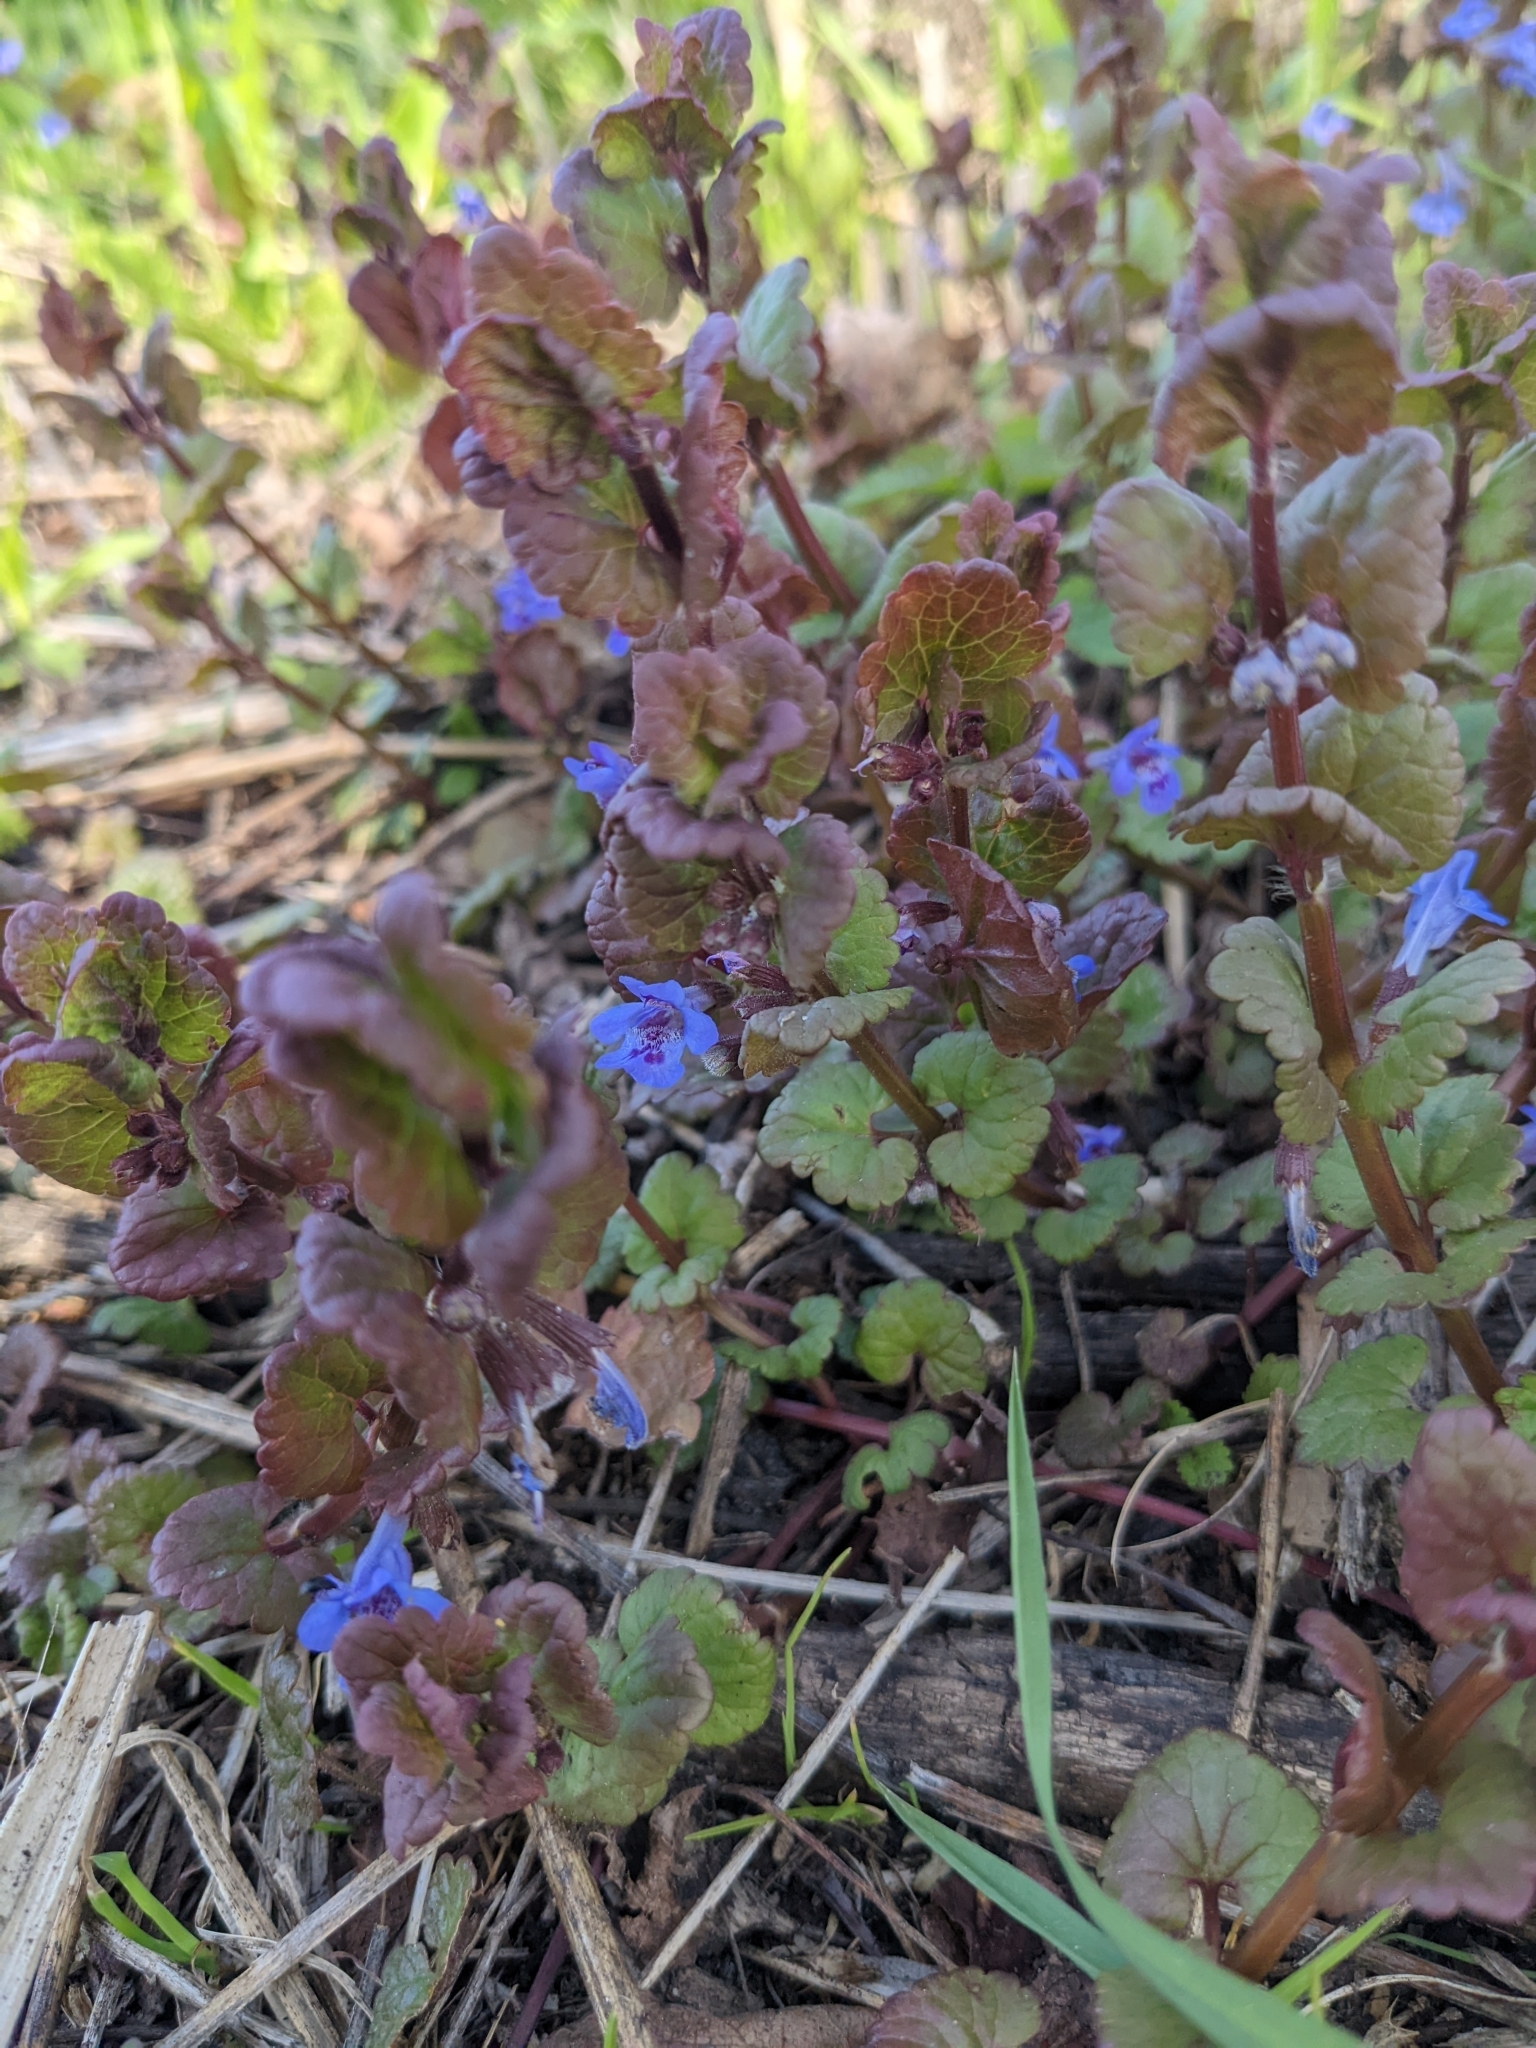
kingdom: Plantae
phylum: Tracheophyta
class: Magnoliopsida
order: Lamiales
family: Lamiaceae
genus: Glechoma
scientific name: Glechoma hederacea
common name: Ground ivy
